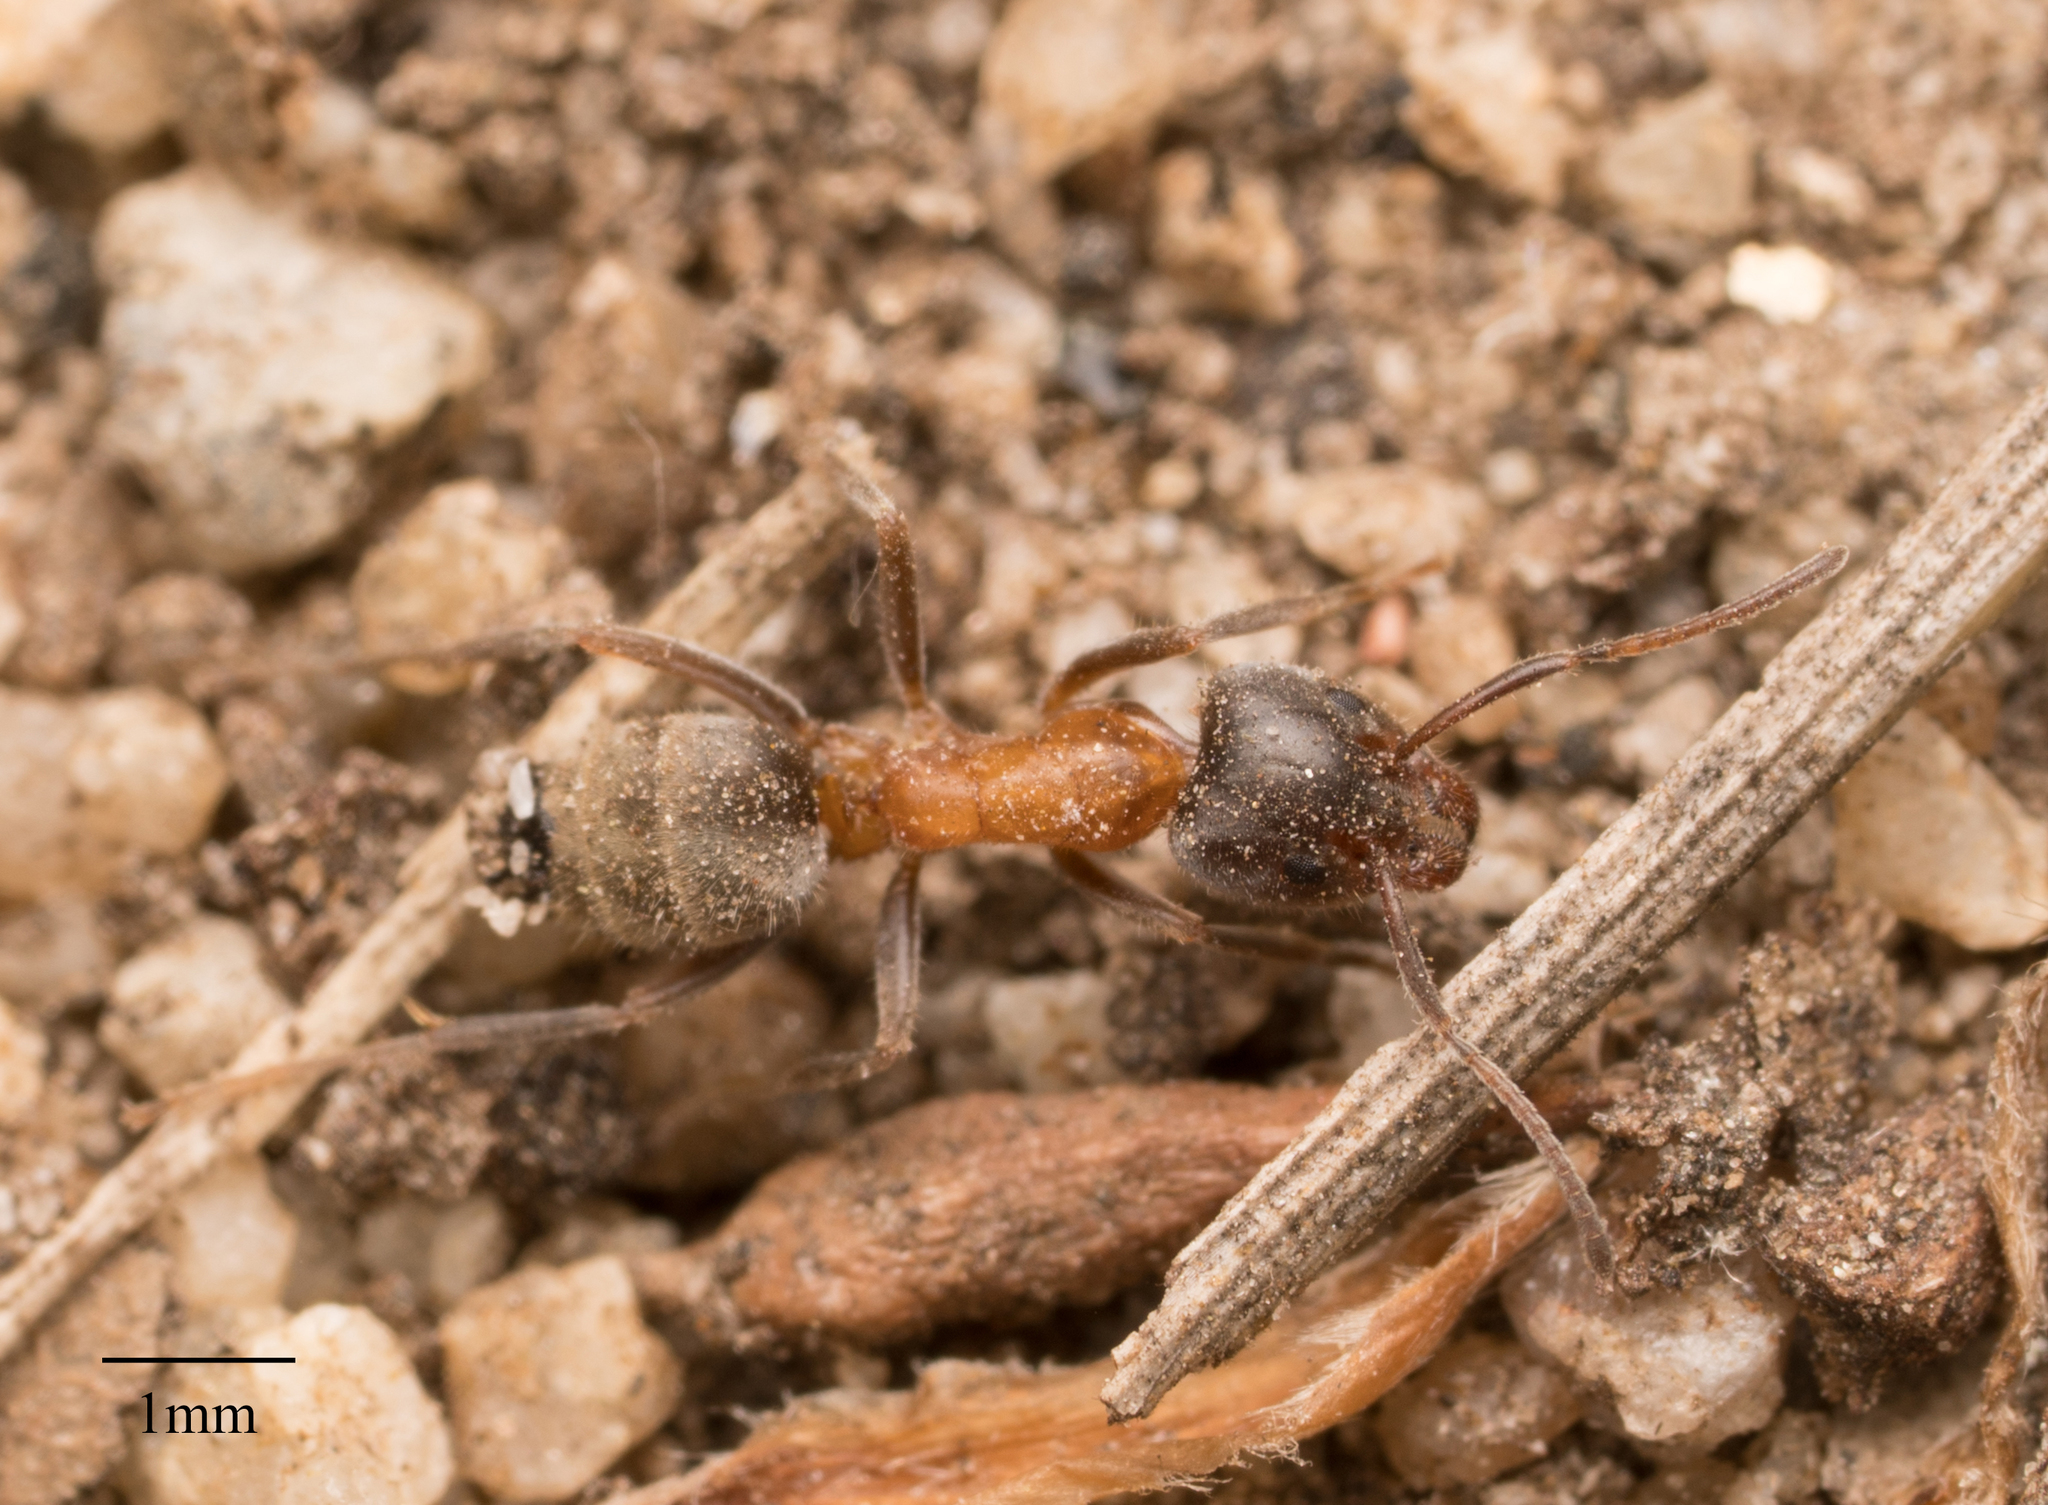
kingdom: Animalia
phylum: Arthropoda
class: Insecta
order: Hymenoptera
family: Formicidae
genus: Liometopum
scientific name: Liometopum occidentale
